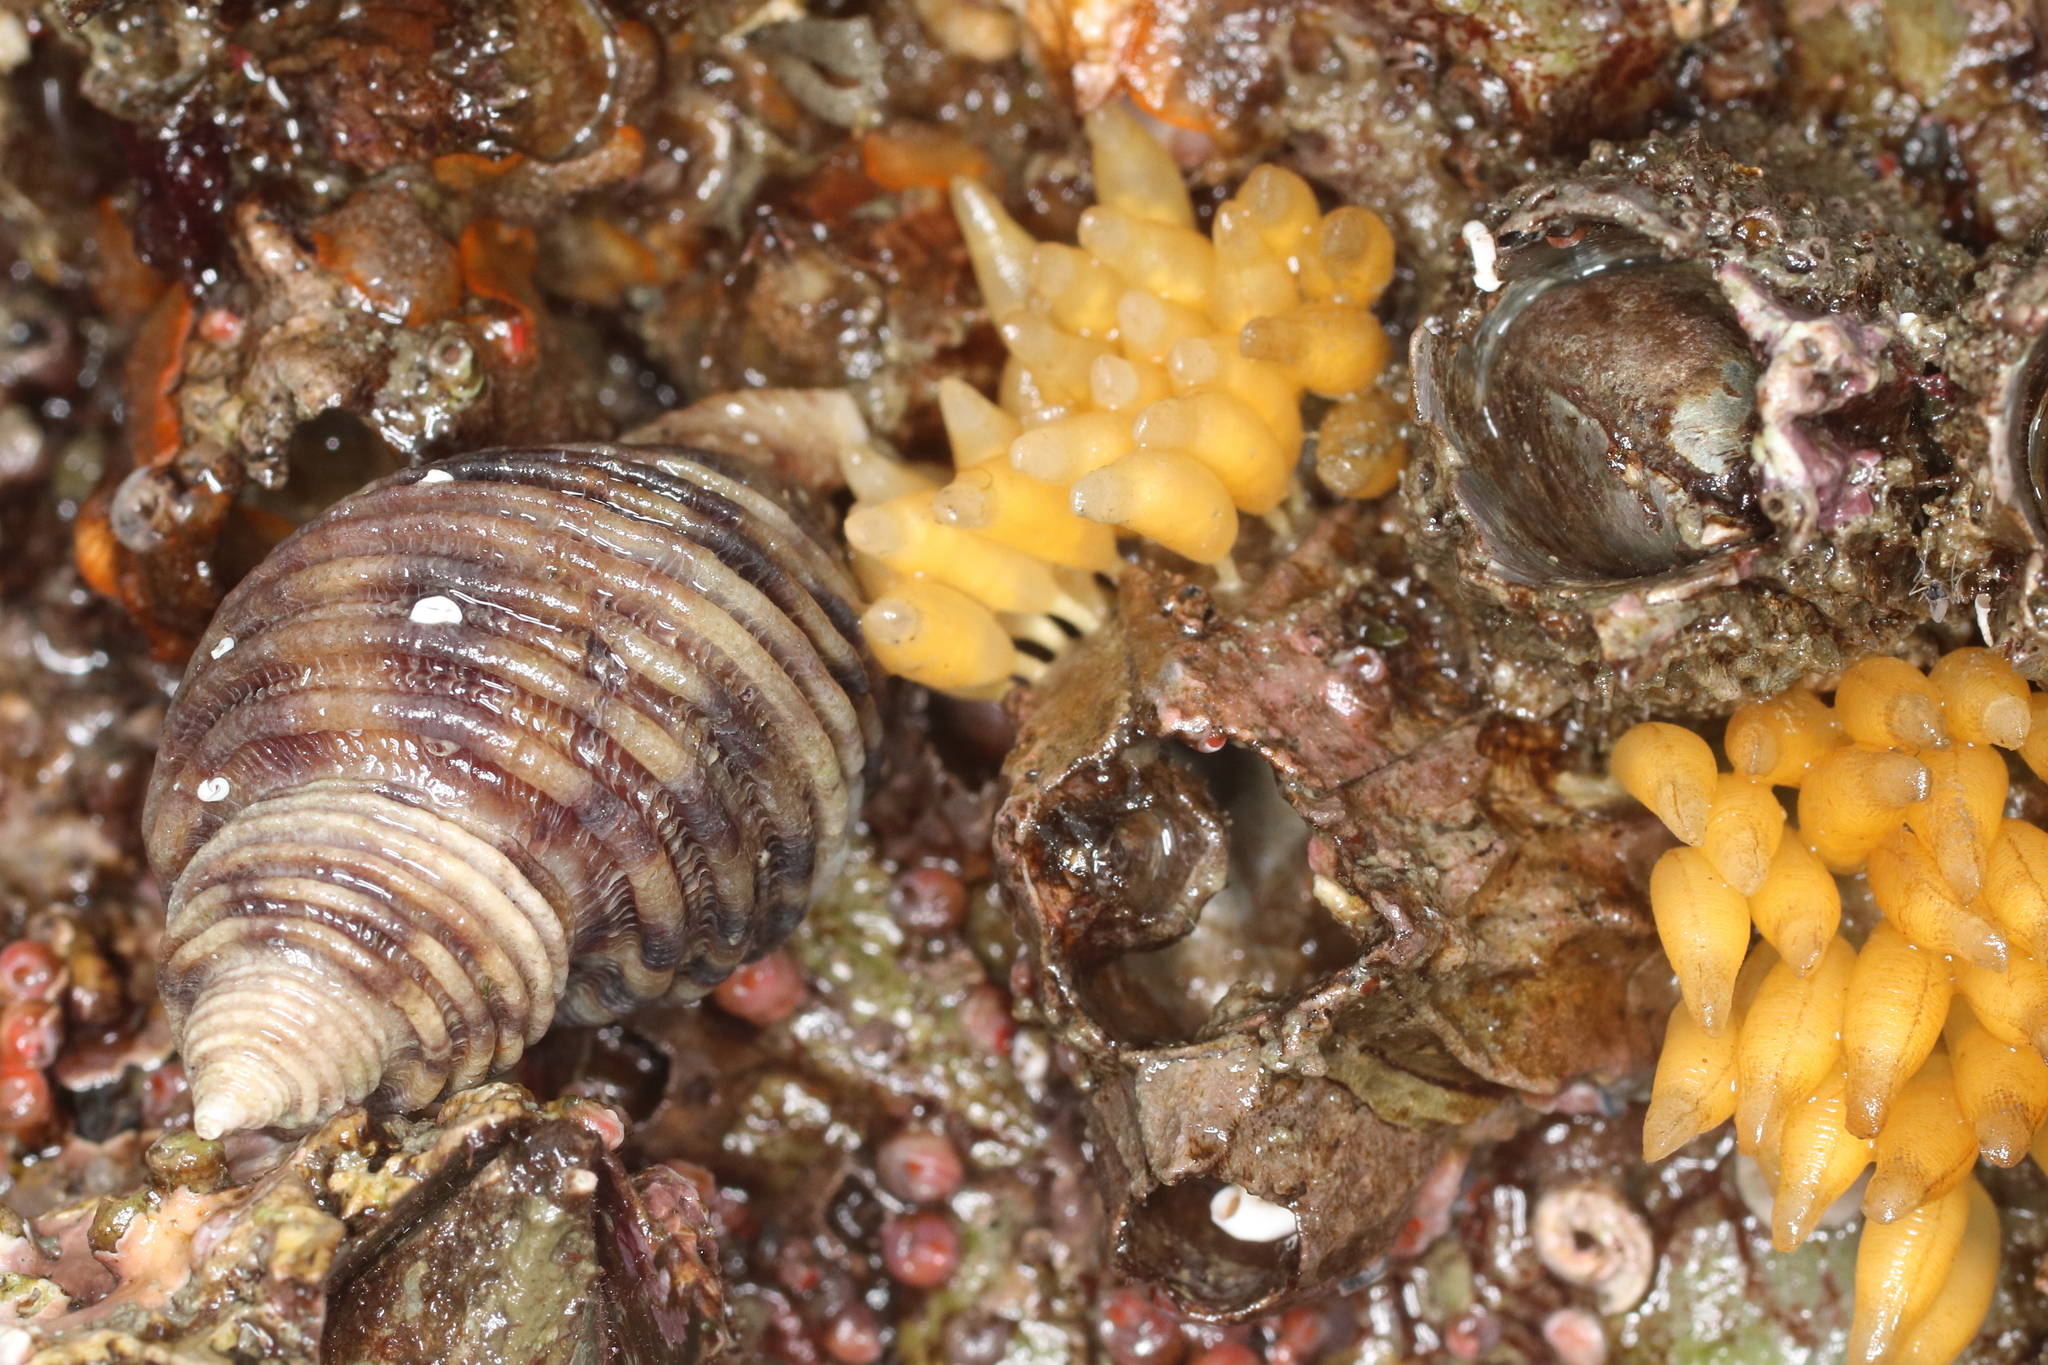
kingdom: Animalia
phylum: Mollusca
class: Gastropoda
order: Neogastropoda
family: Muricidae
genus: Nucella
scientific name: Nucella canaliculata
